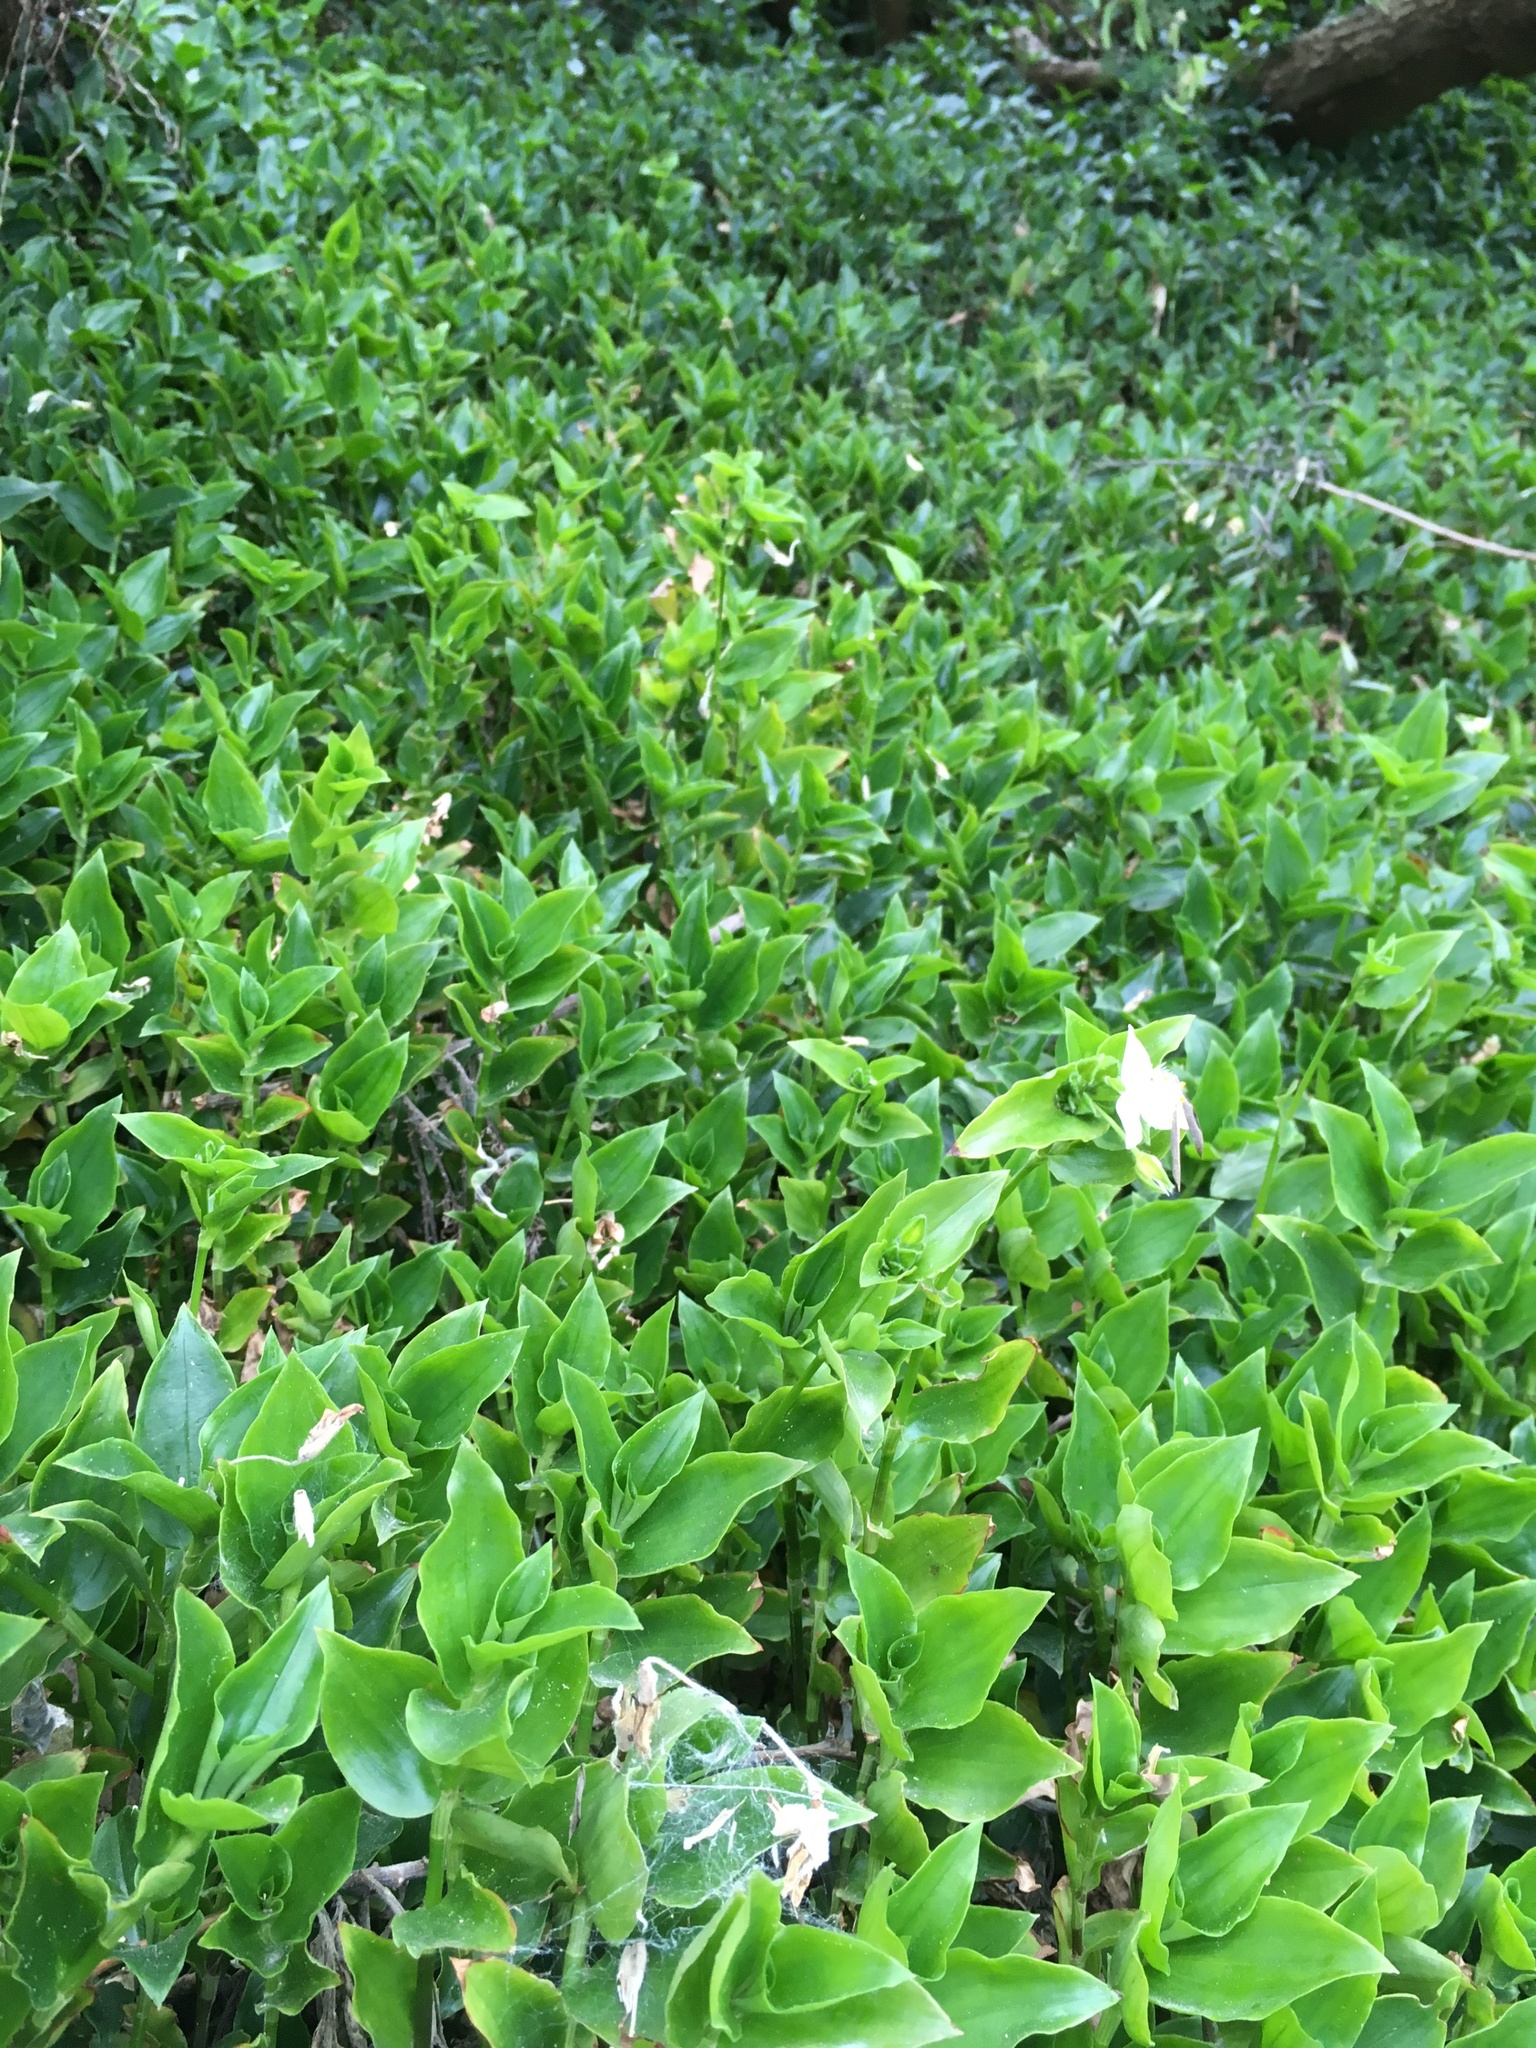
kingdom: Plantae
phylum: Tracheophyta
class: Liliopsida
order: Commelinales
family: Commelinaceae
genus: Tradescantia
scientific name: Tradescantia fluminensis
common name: Wandering-jew
